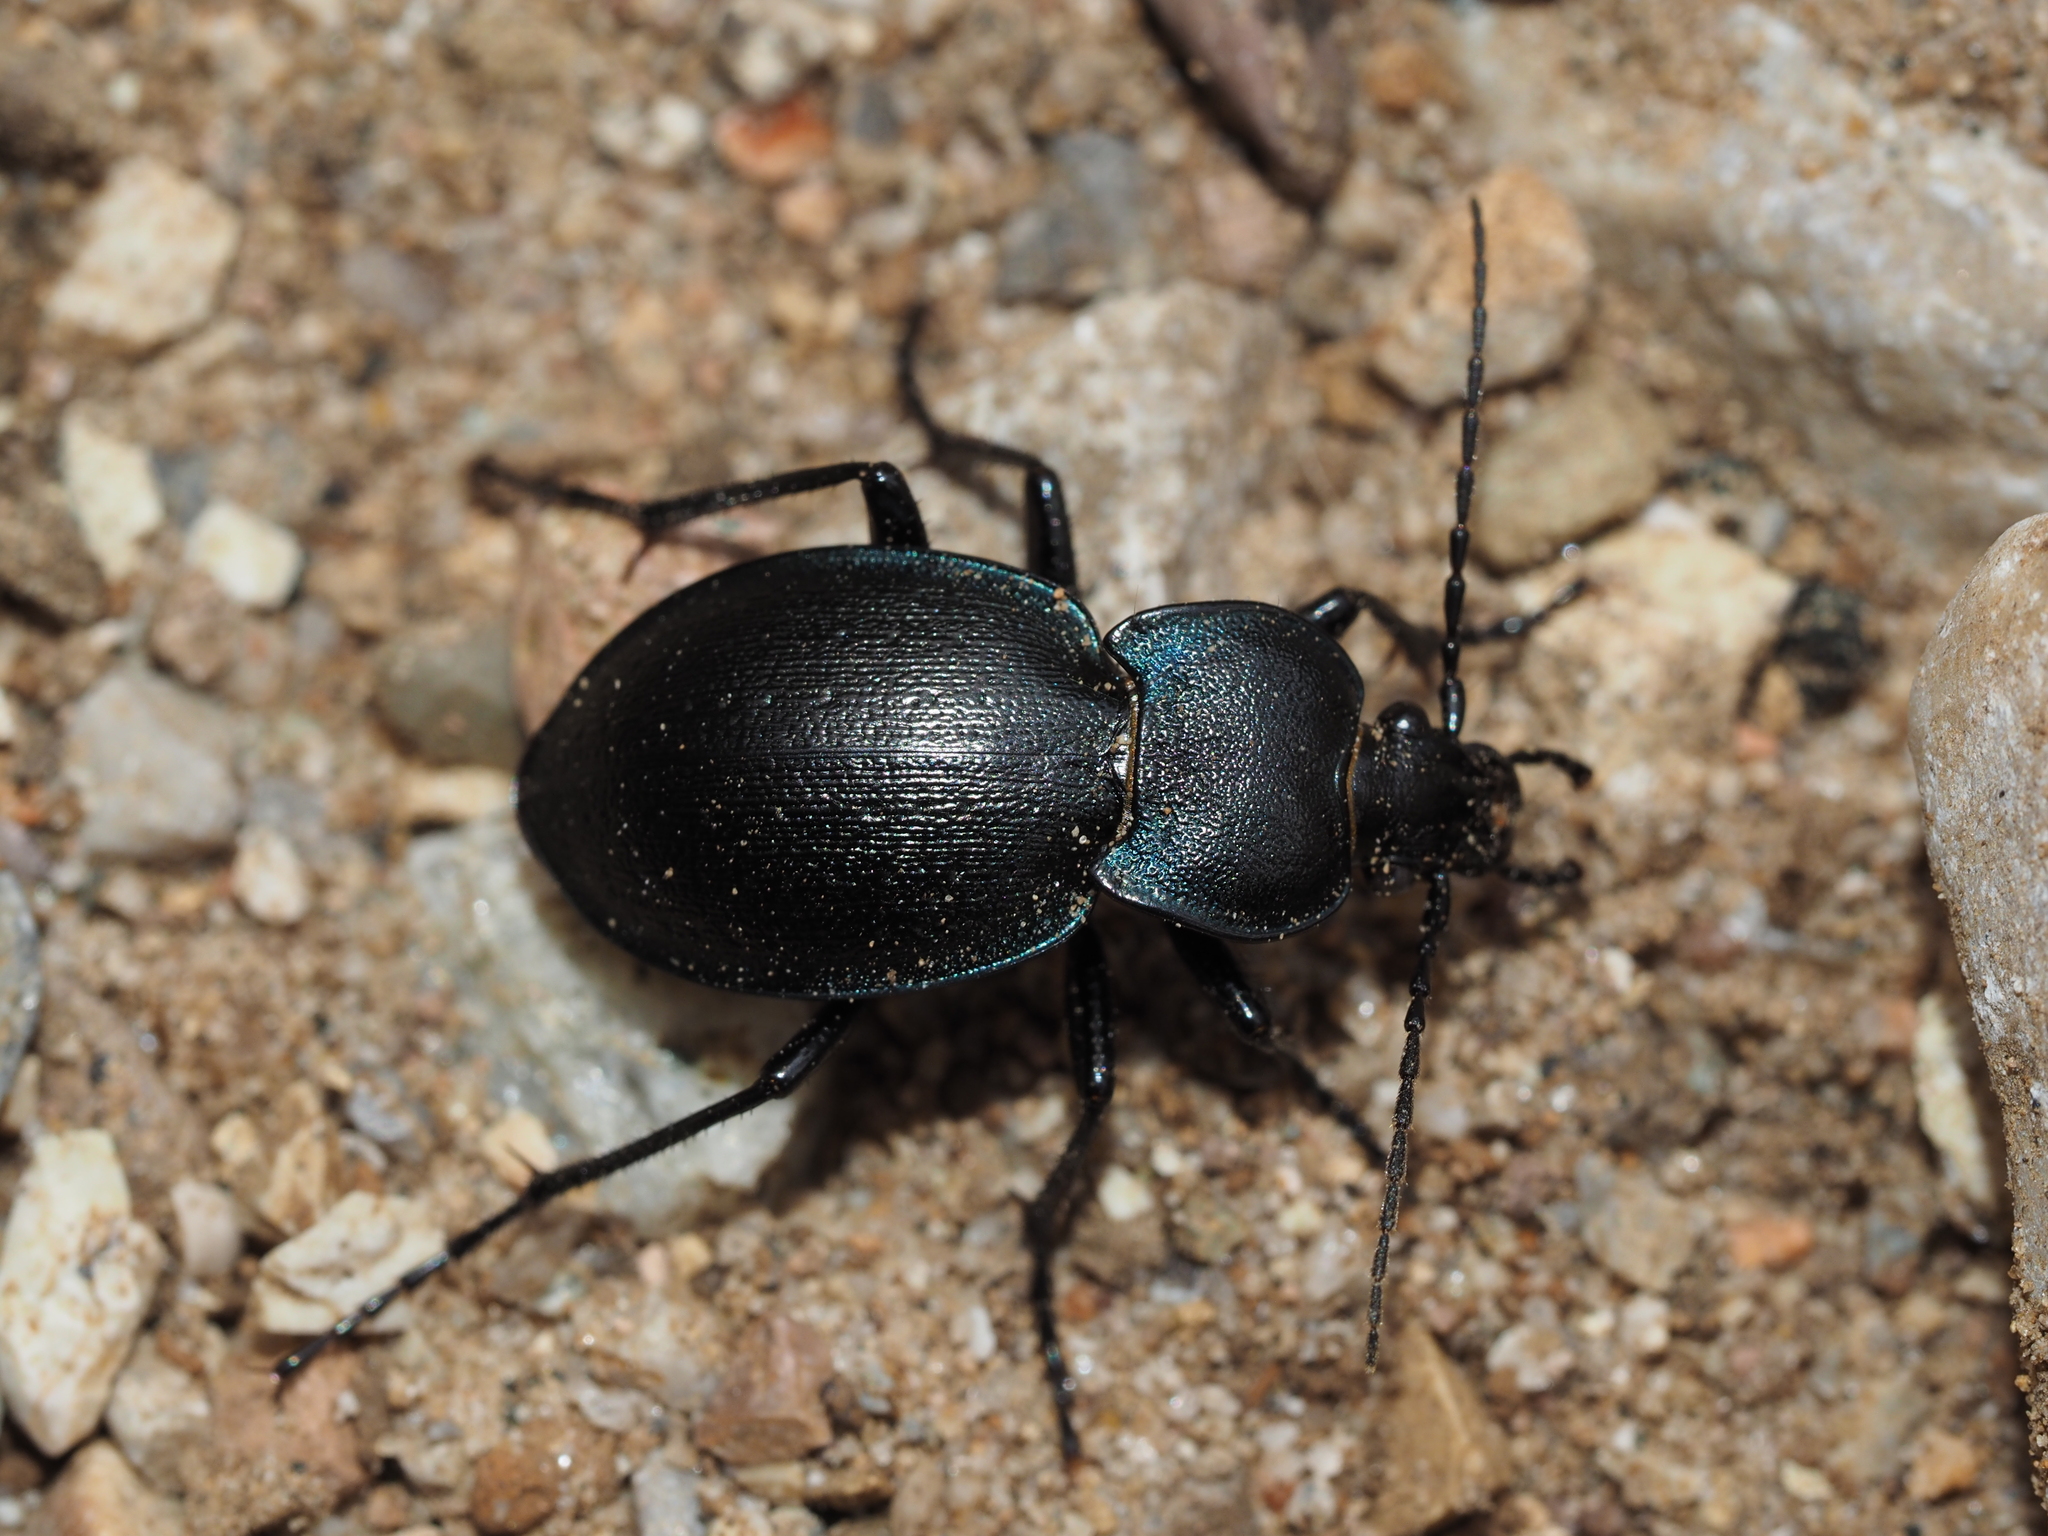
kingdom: Animalia
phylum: Arthropoda
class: Insecta
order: Coleoptera
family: Carabidae
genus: Carabus
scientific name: Carabus convexus
